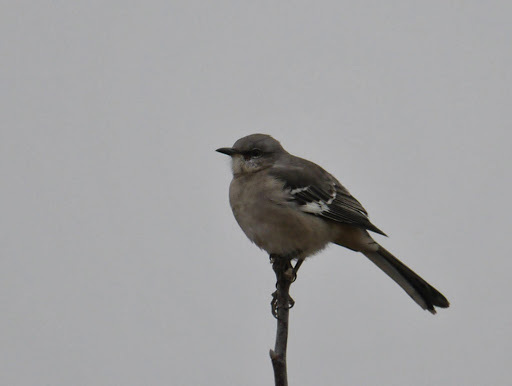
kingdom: Animalia
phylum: Chordata
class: Aves
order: Passeriformes
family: Mimidae
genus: Mimus
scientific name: Mimus polyglottos
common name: Northern mockingbird
